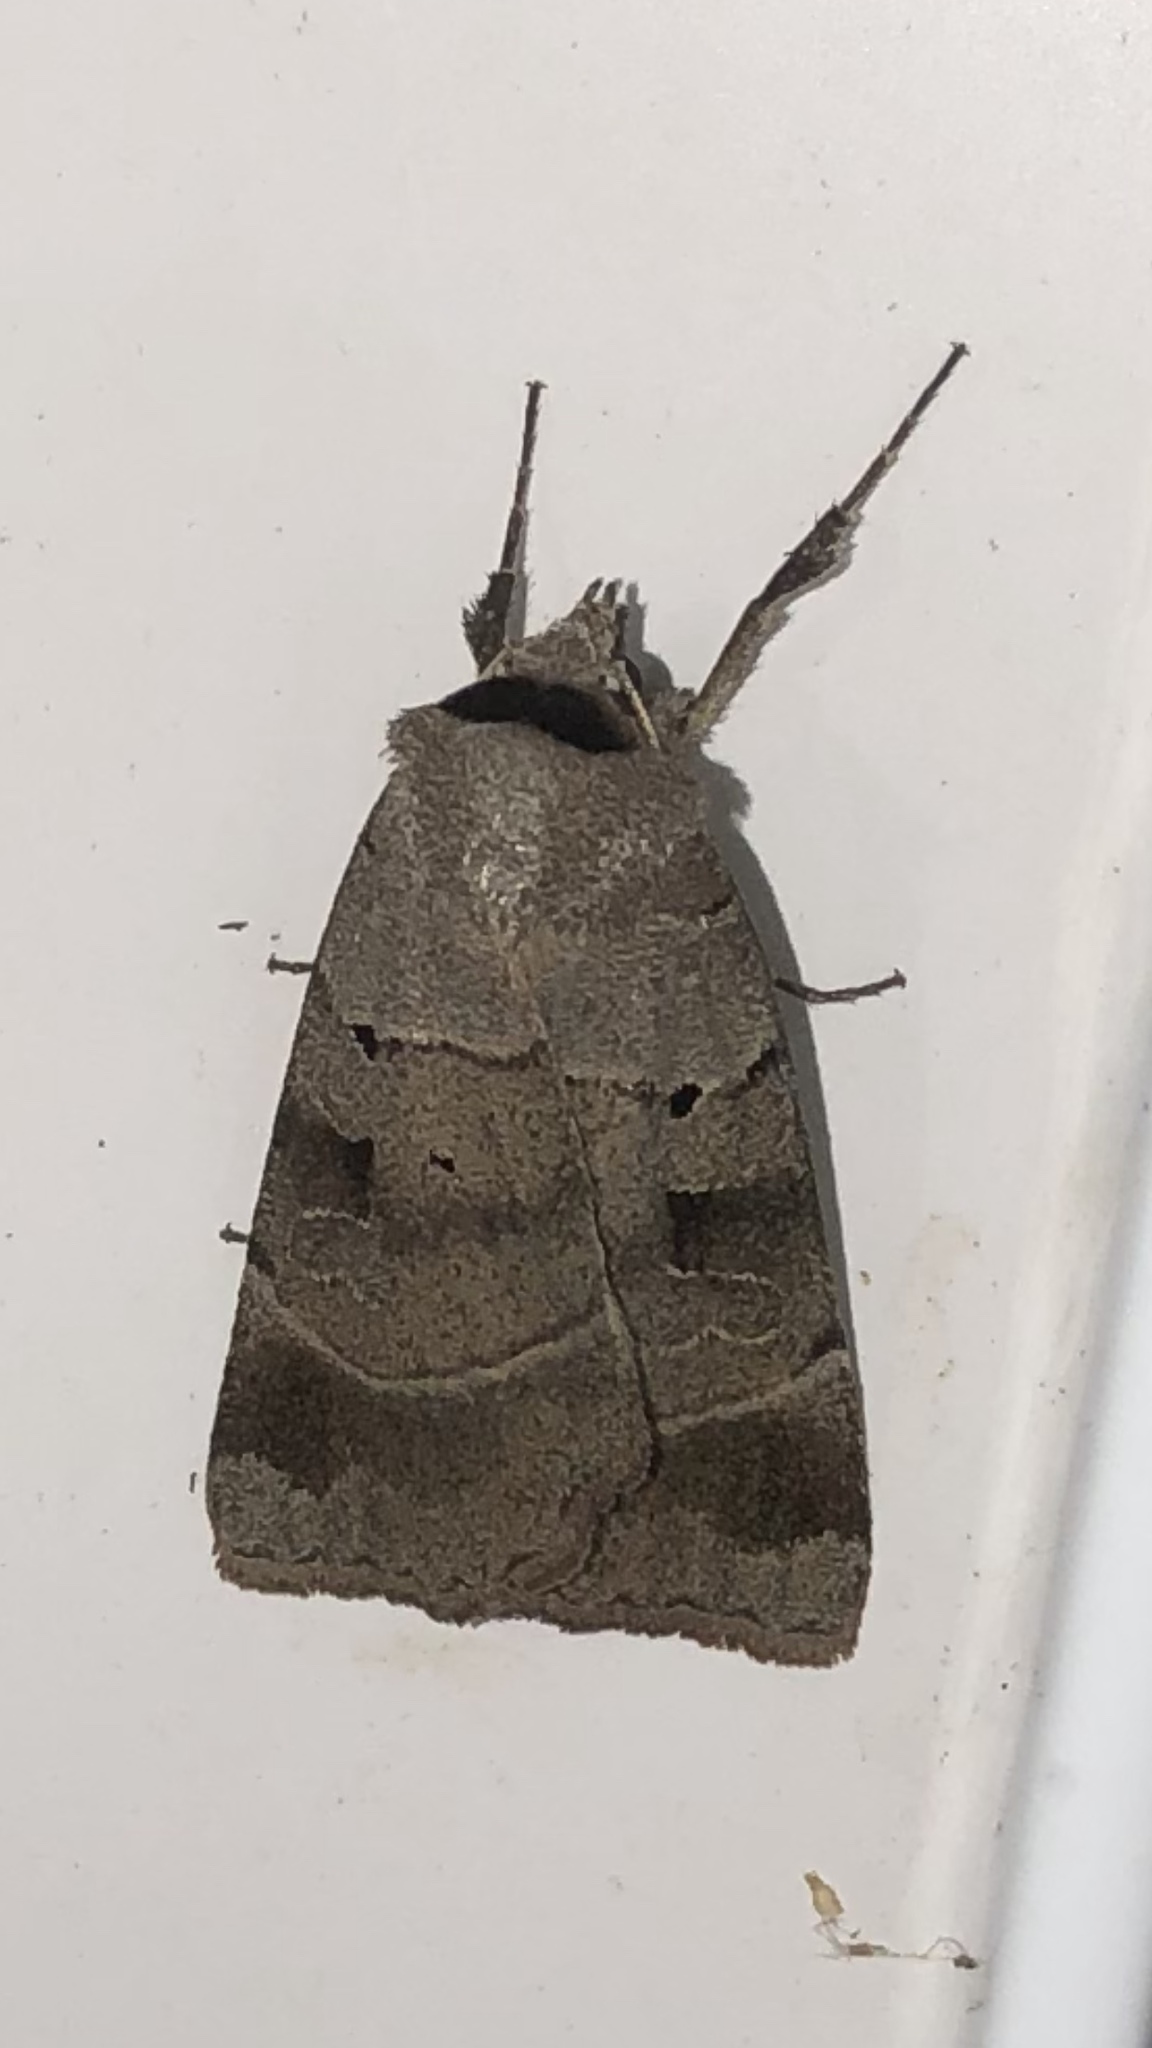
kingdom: Animalia
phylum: Arthropoda
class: Insecta
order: Lepidoptera
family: Noctuidae
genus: Agnorisma
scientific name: Agnorisma badinodis
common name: Pale-banded dart
